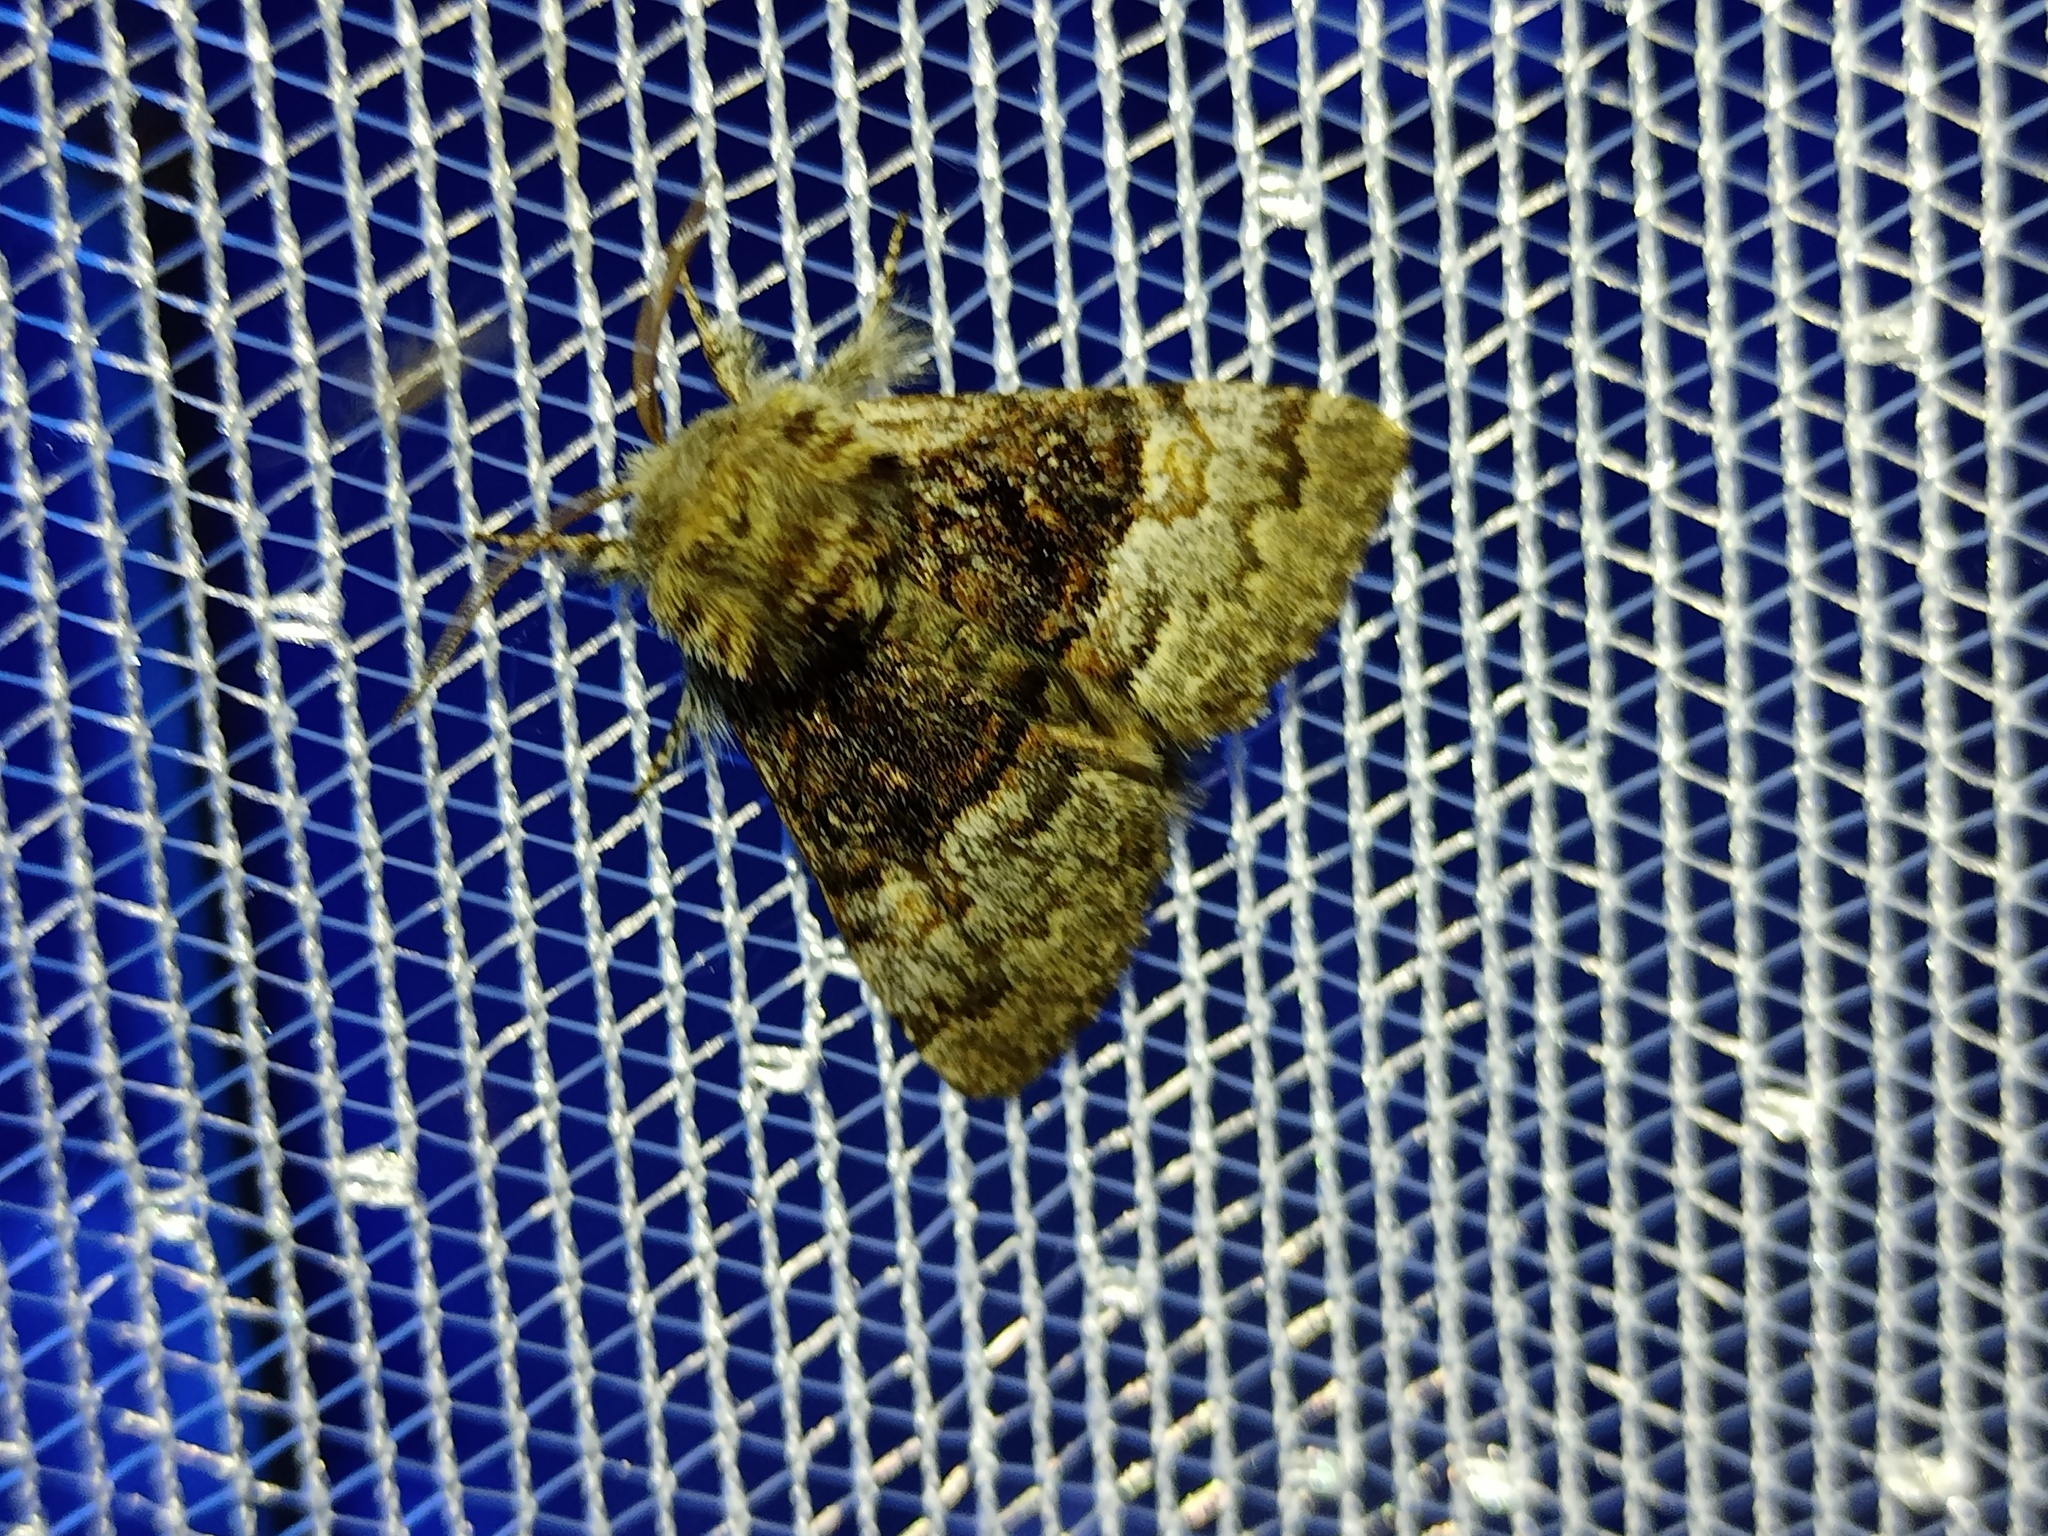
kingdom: Animalia
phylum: Arthropoda
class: Insecta
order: Lepidoptera
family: Noctuidae
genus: Colocasia
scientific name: Colocasia coryli
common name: Nut-tree tussock
